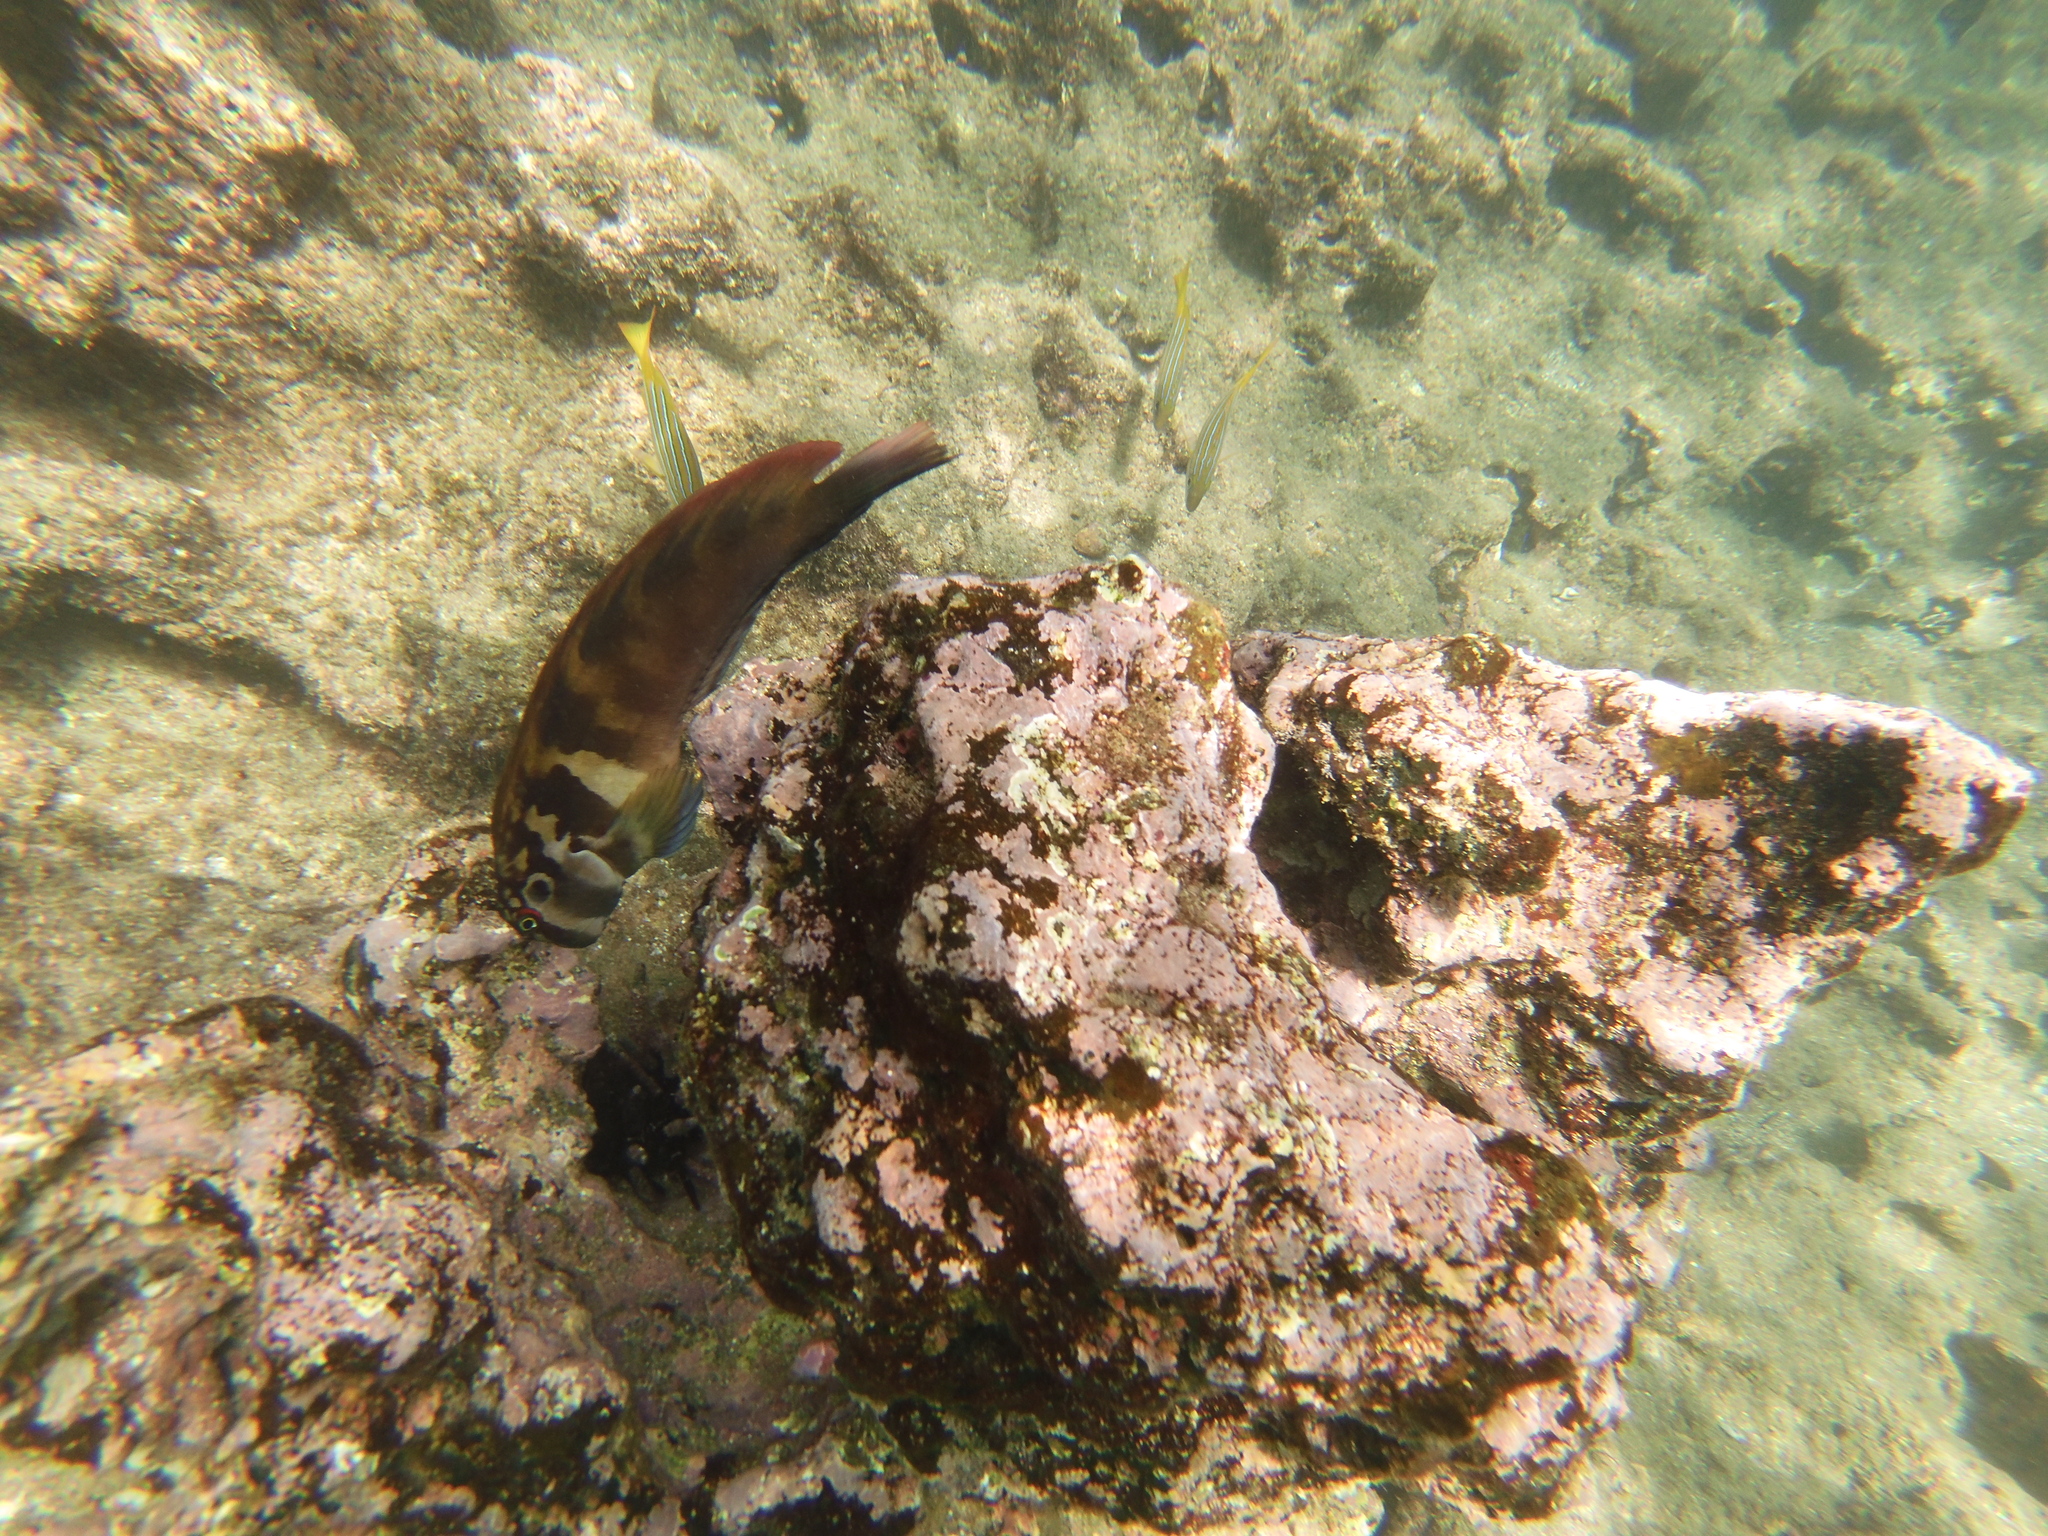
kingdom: Animalia
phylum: Chordata
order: Perciformes
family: Blenniidae
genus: Ophioblennius
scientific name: Ophioblennius steindachneri
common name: Panamic fanged blenny
